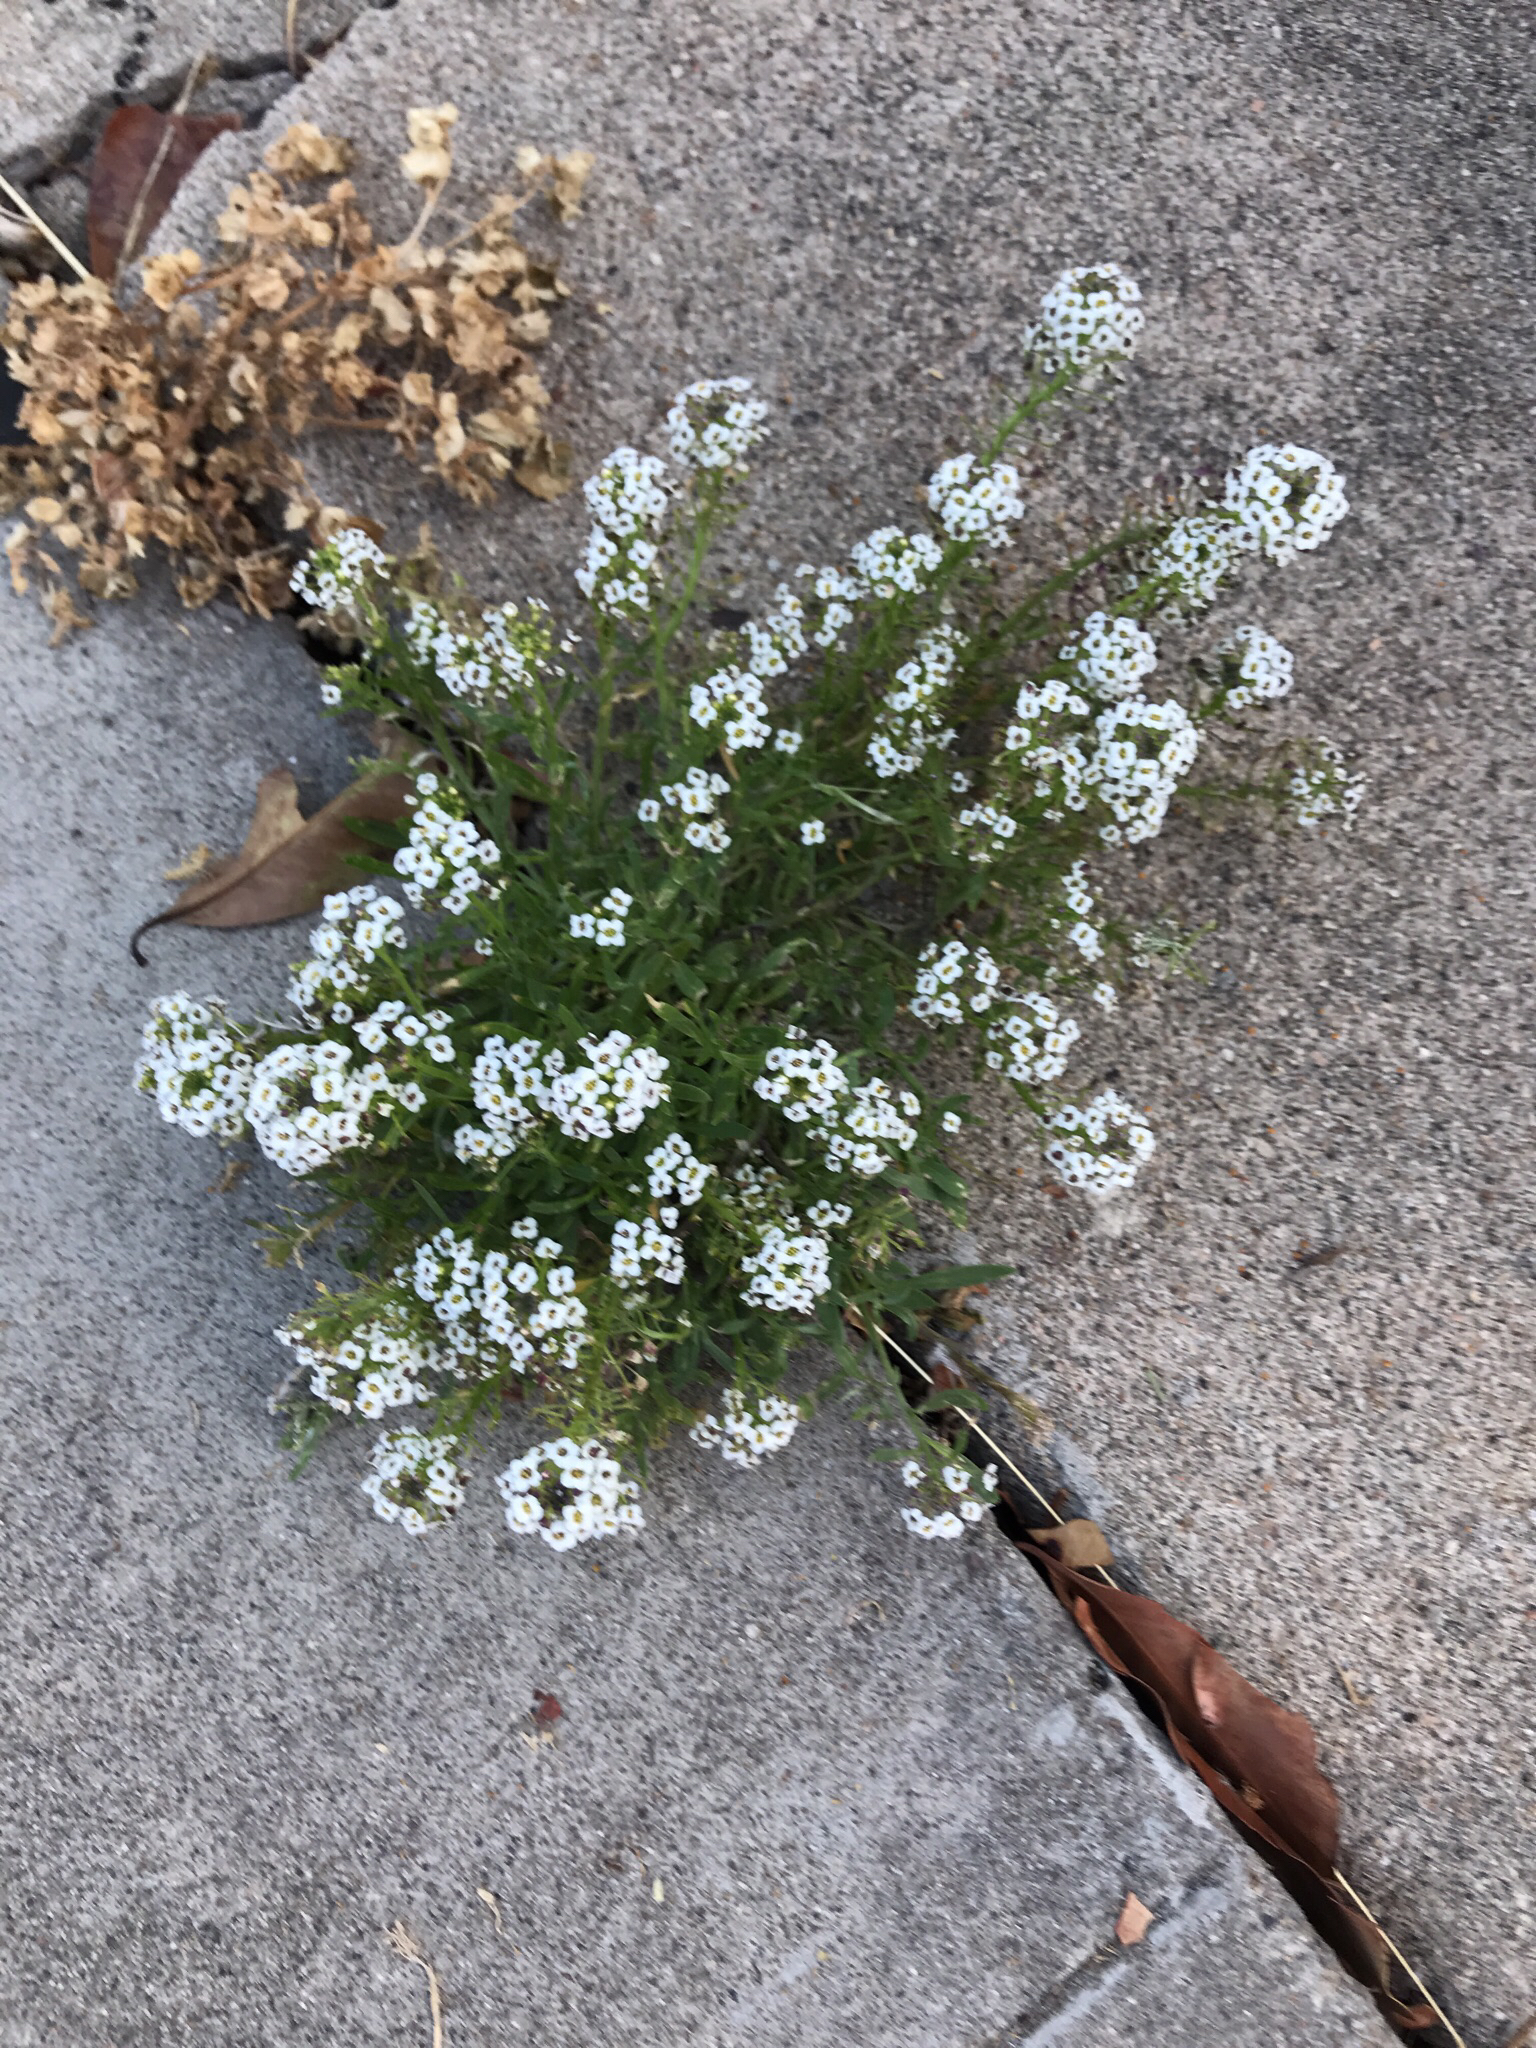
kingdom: Plantae
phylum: Tracheophyta
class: Magnoliopsida
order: Brassicales
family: Brassicaceae
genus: Lobularia
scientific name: Lobularia maritima
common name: Sweet alison
